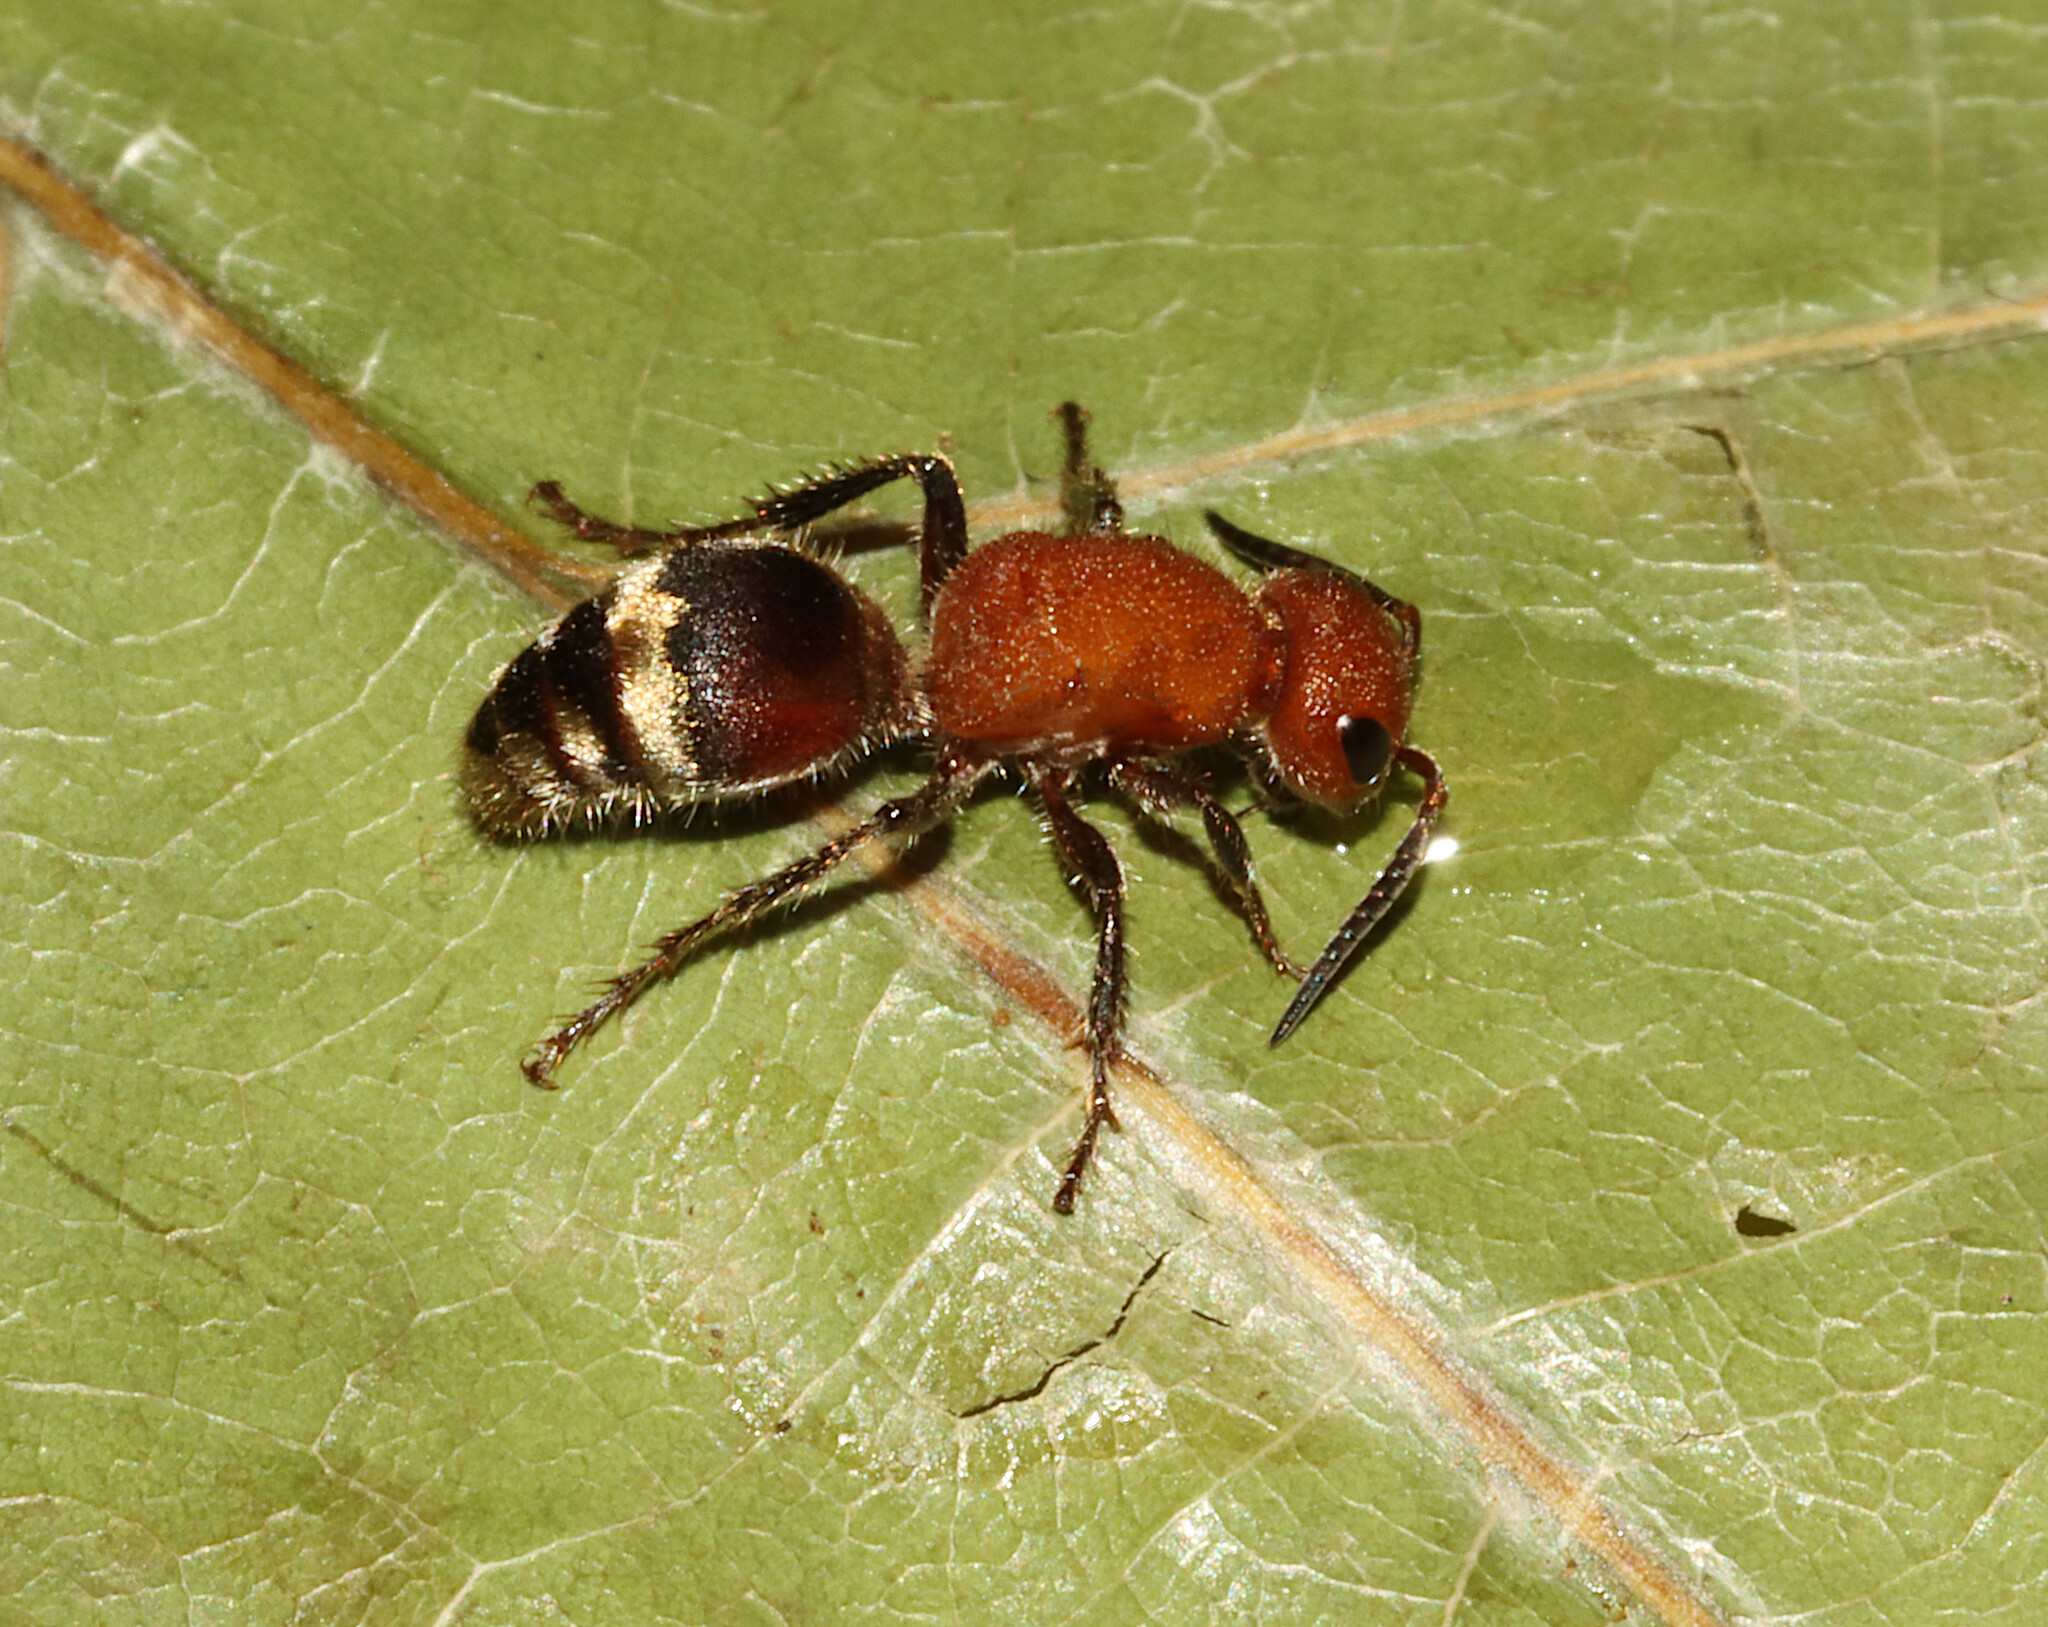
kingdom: Animalia
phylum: Arthropoda
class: Insecta
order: Hymenoptera
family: Mutillidae
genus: Timulla
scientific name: Timulla
